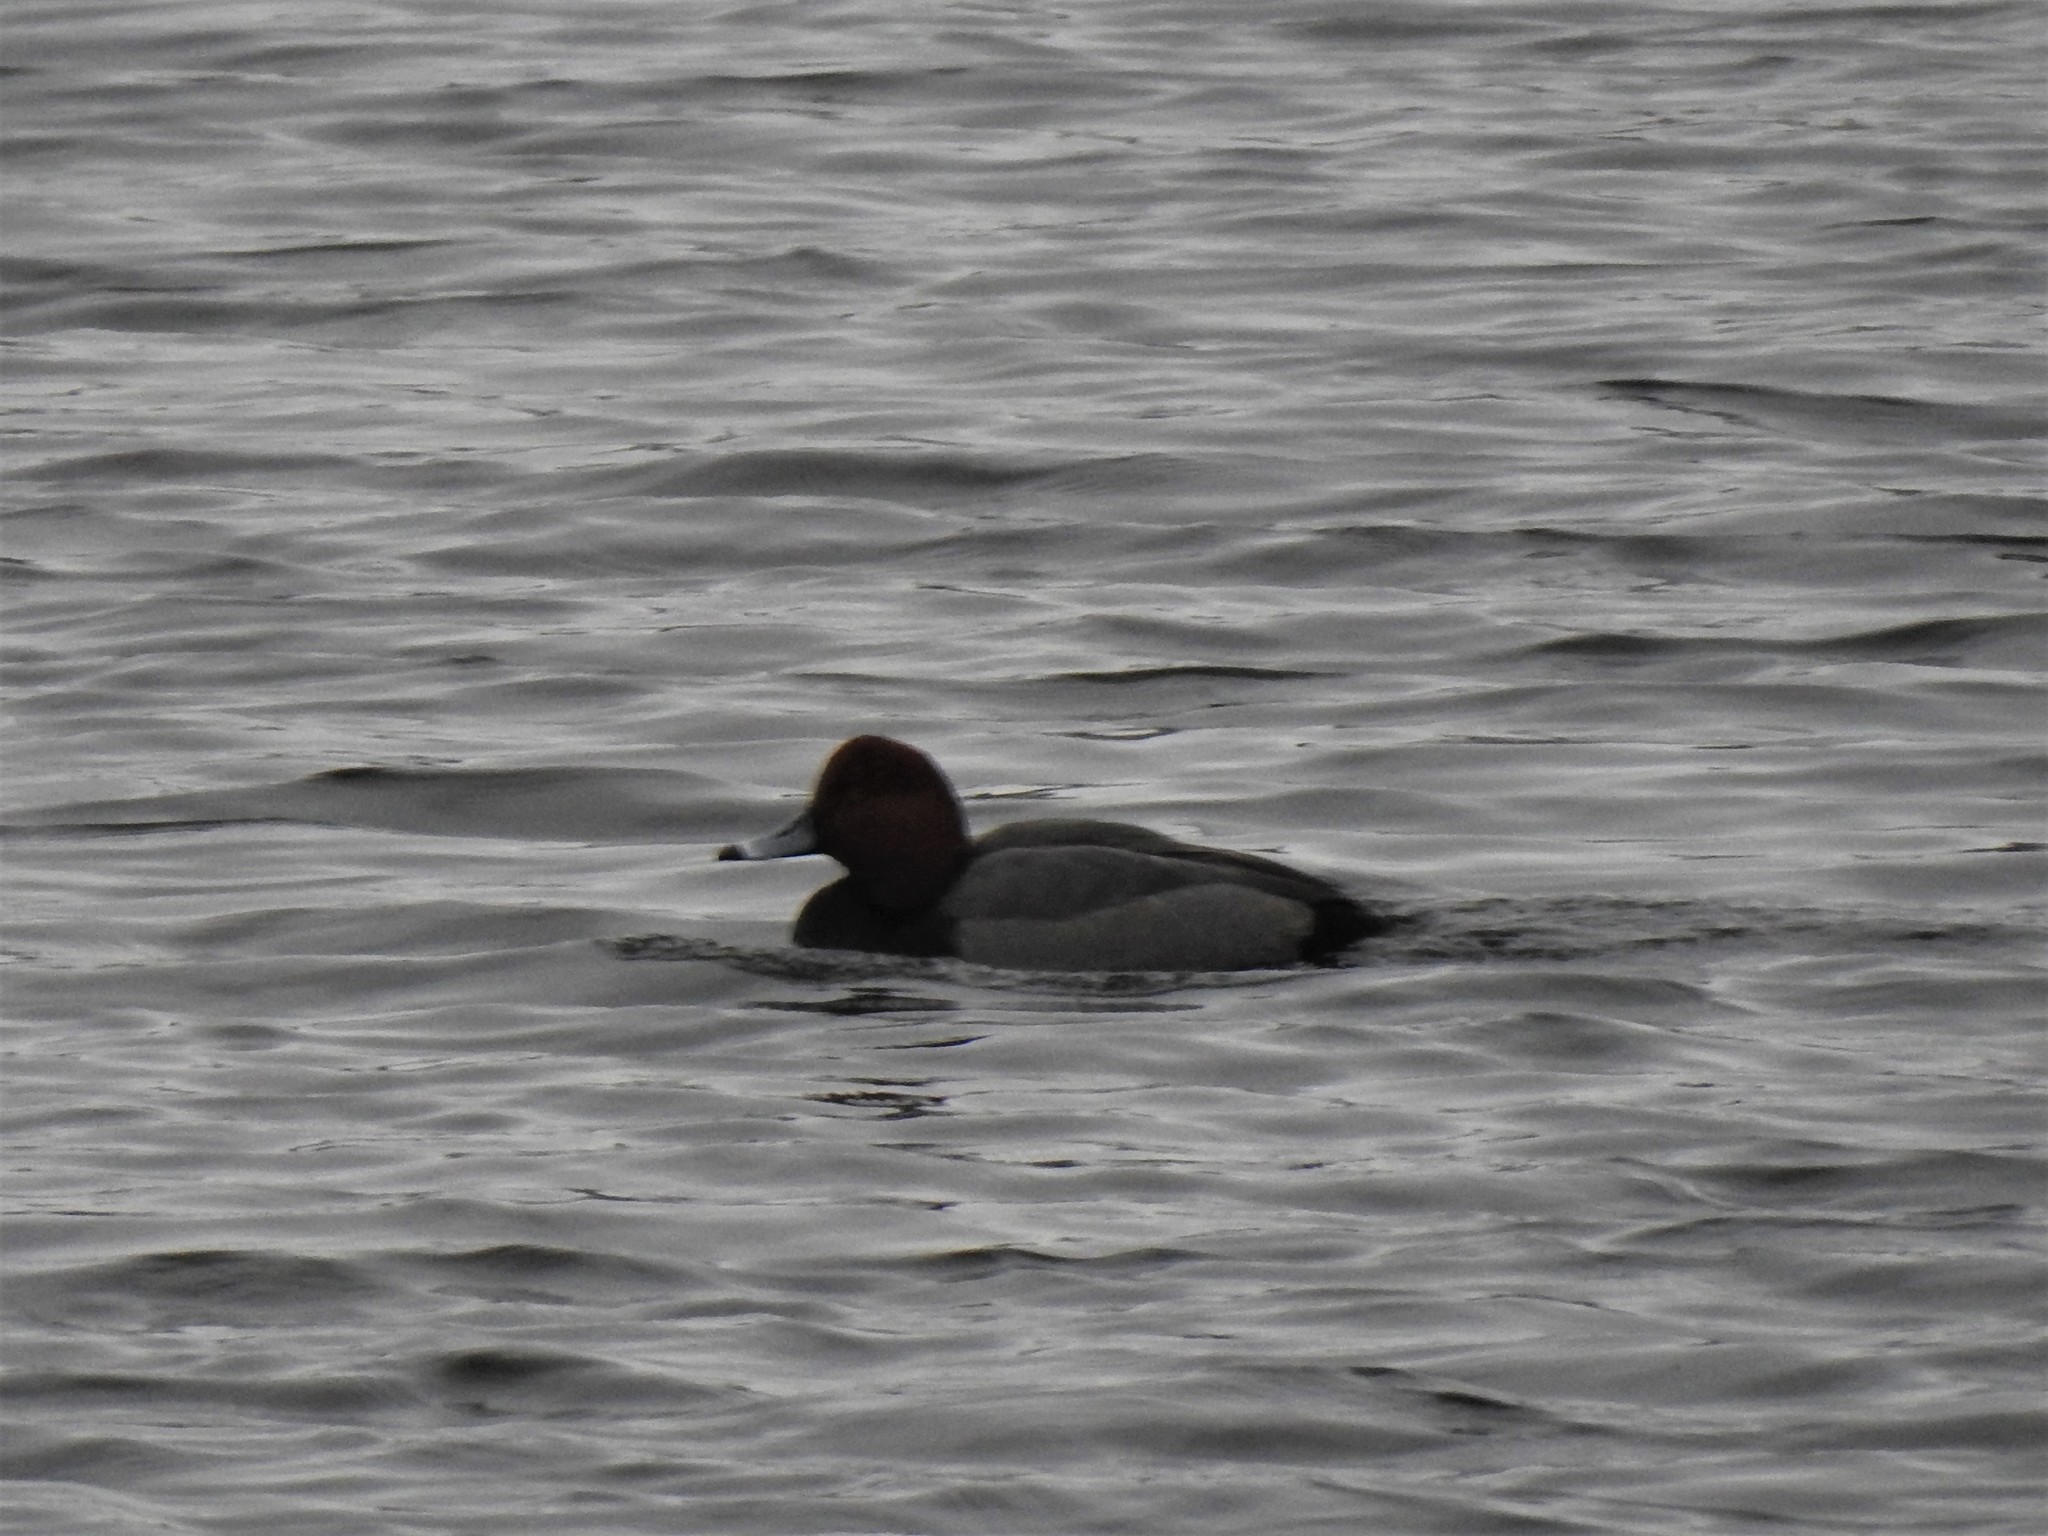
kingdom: Animalia
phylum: Chordata
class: Aves
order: Anseriformes
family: Anatidae
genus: Aythya
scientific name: Aythya americana
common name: Redhead
